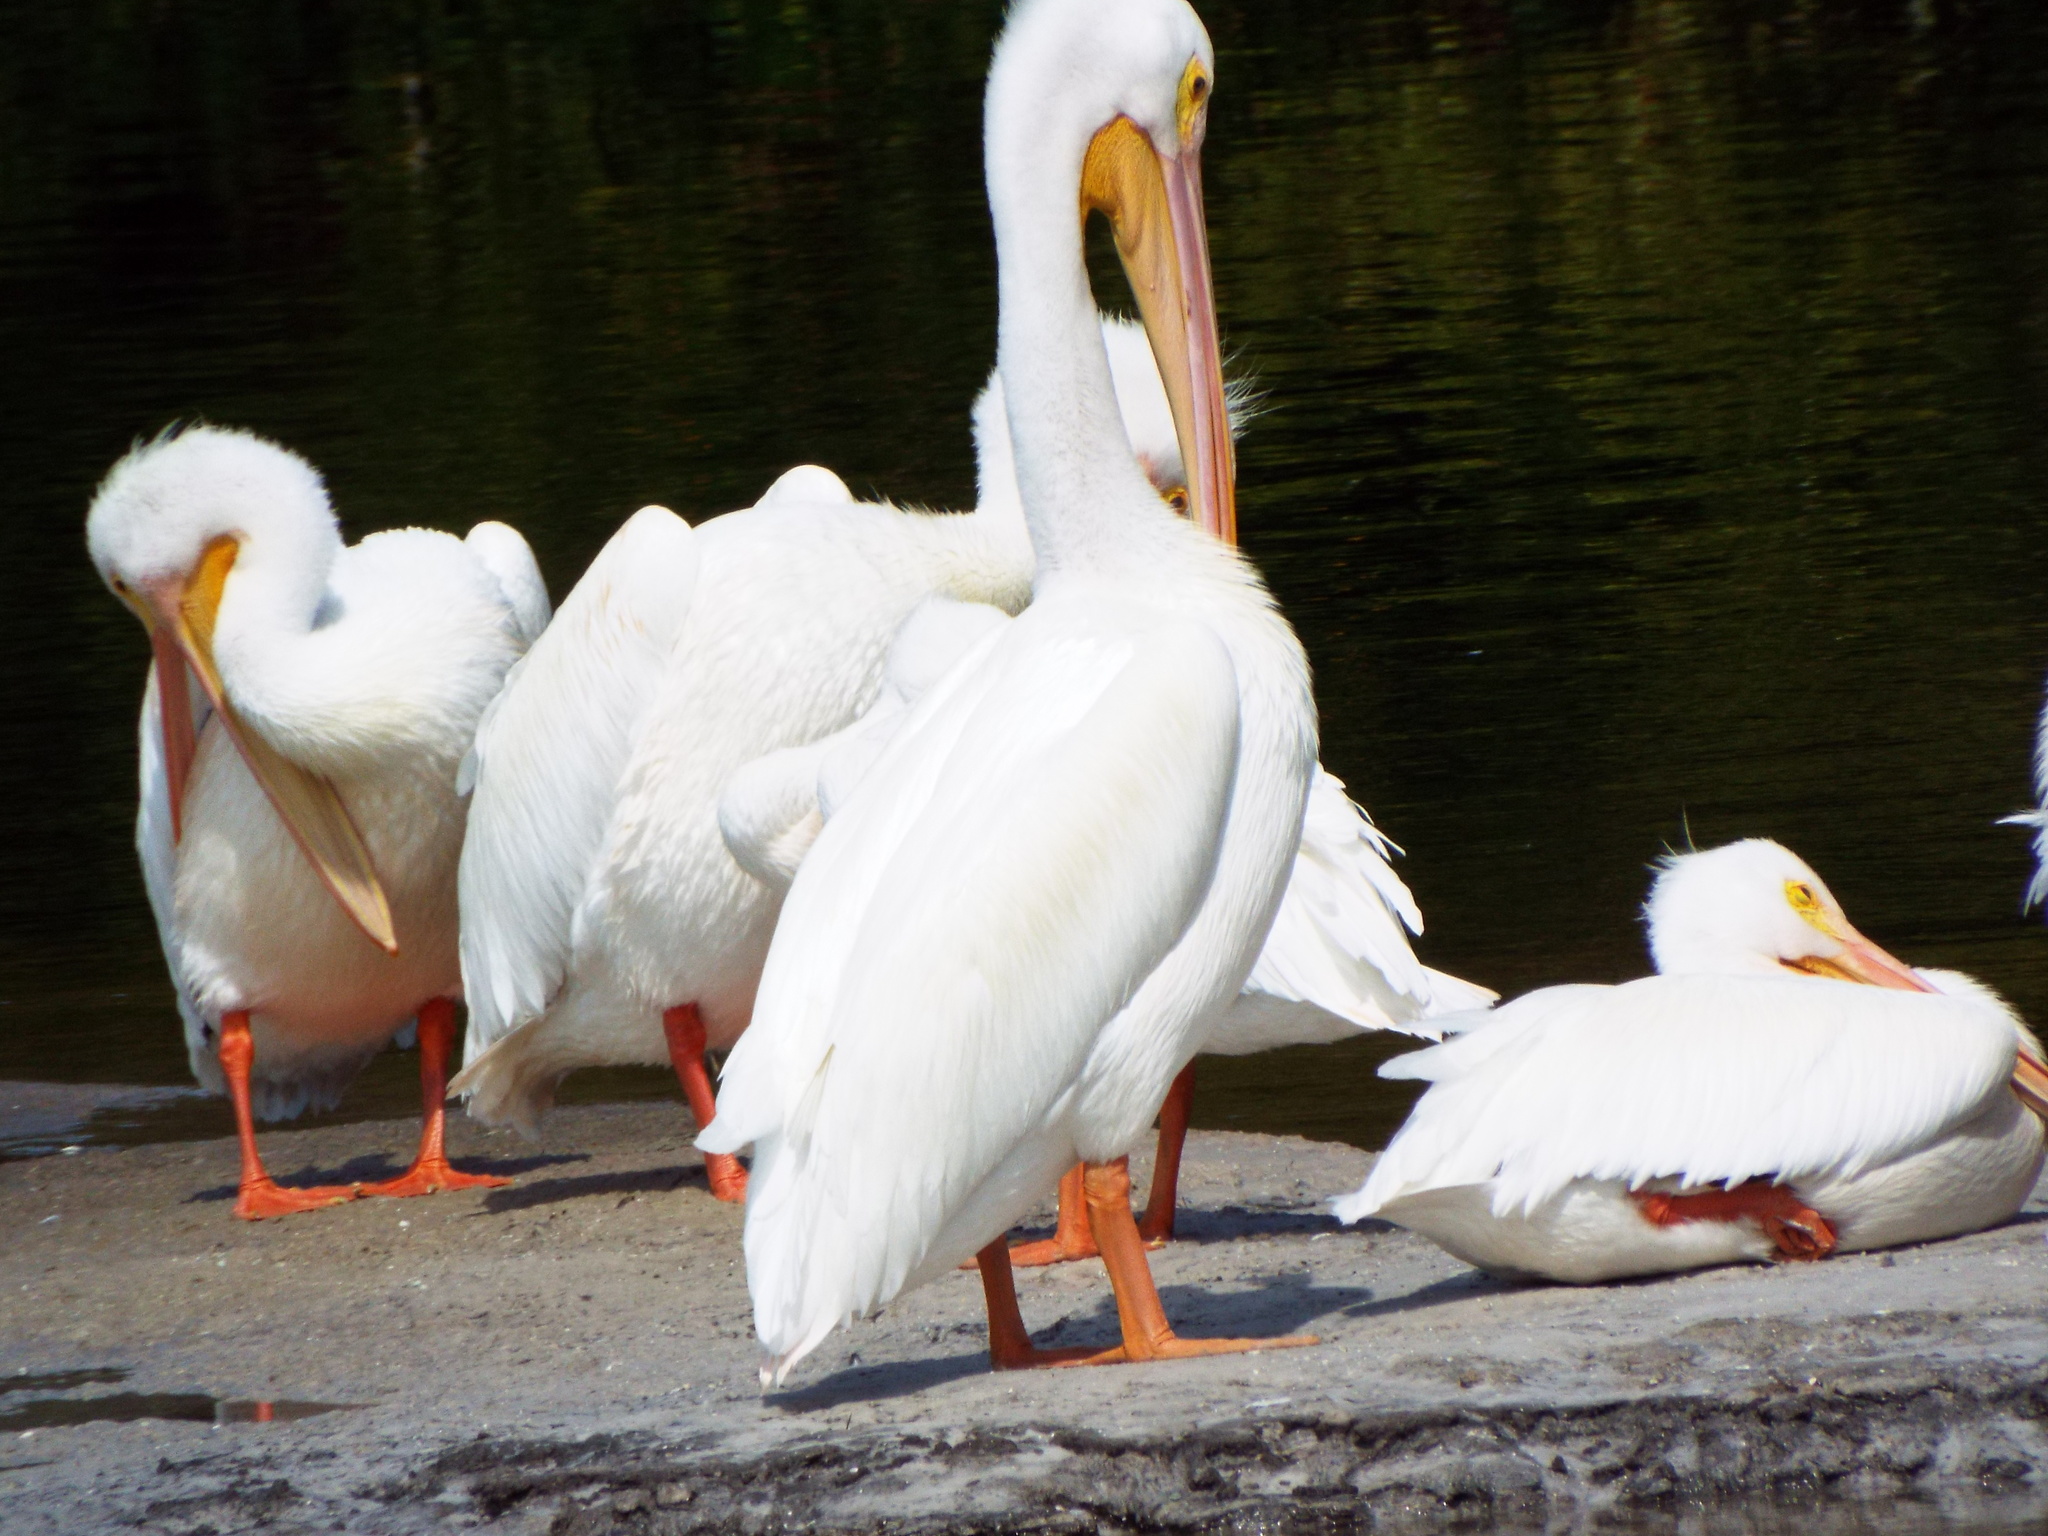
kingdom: Animalia
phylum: Chordata
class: Aves
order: Pelecaniformes
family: Pelecanidae
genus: Pelecanus
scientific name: Pelecanus erythrorhynchos
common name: American white pelican
